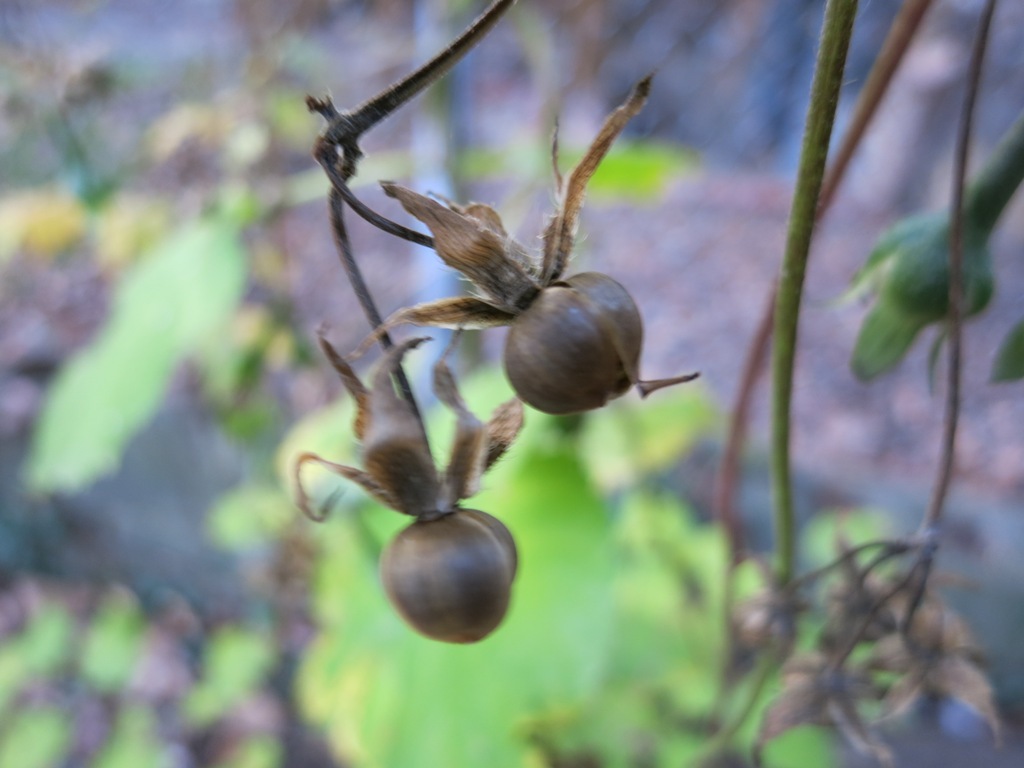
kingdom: Plantae
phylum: Tracheophyta
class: Magnoliopsida
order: Solanales
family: Convolvulaceae
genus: Ipomoea
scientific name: Ipomoea purpurea
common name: Common morning-glory
